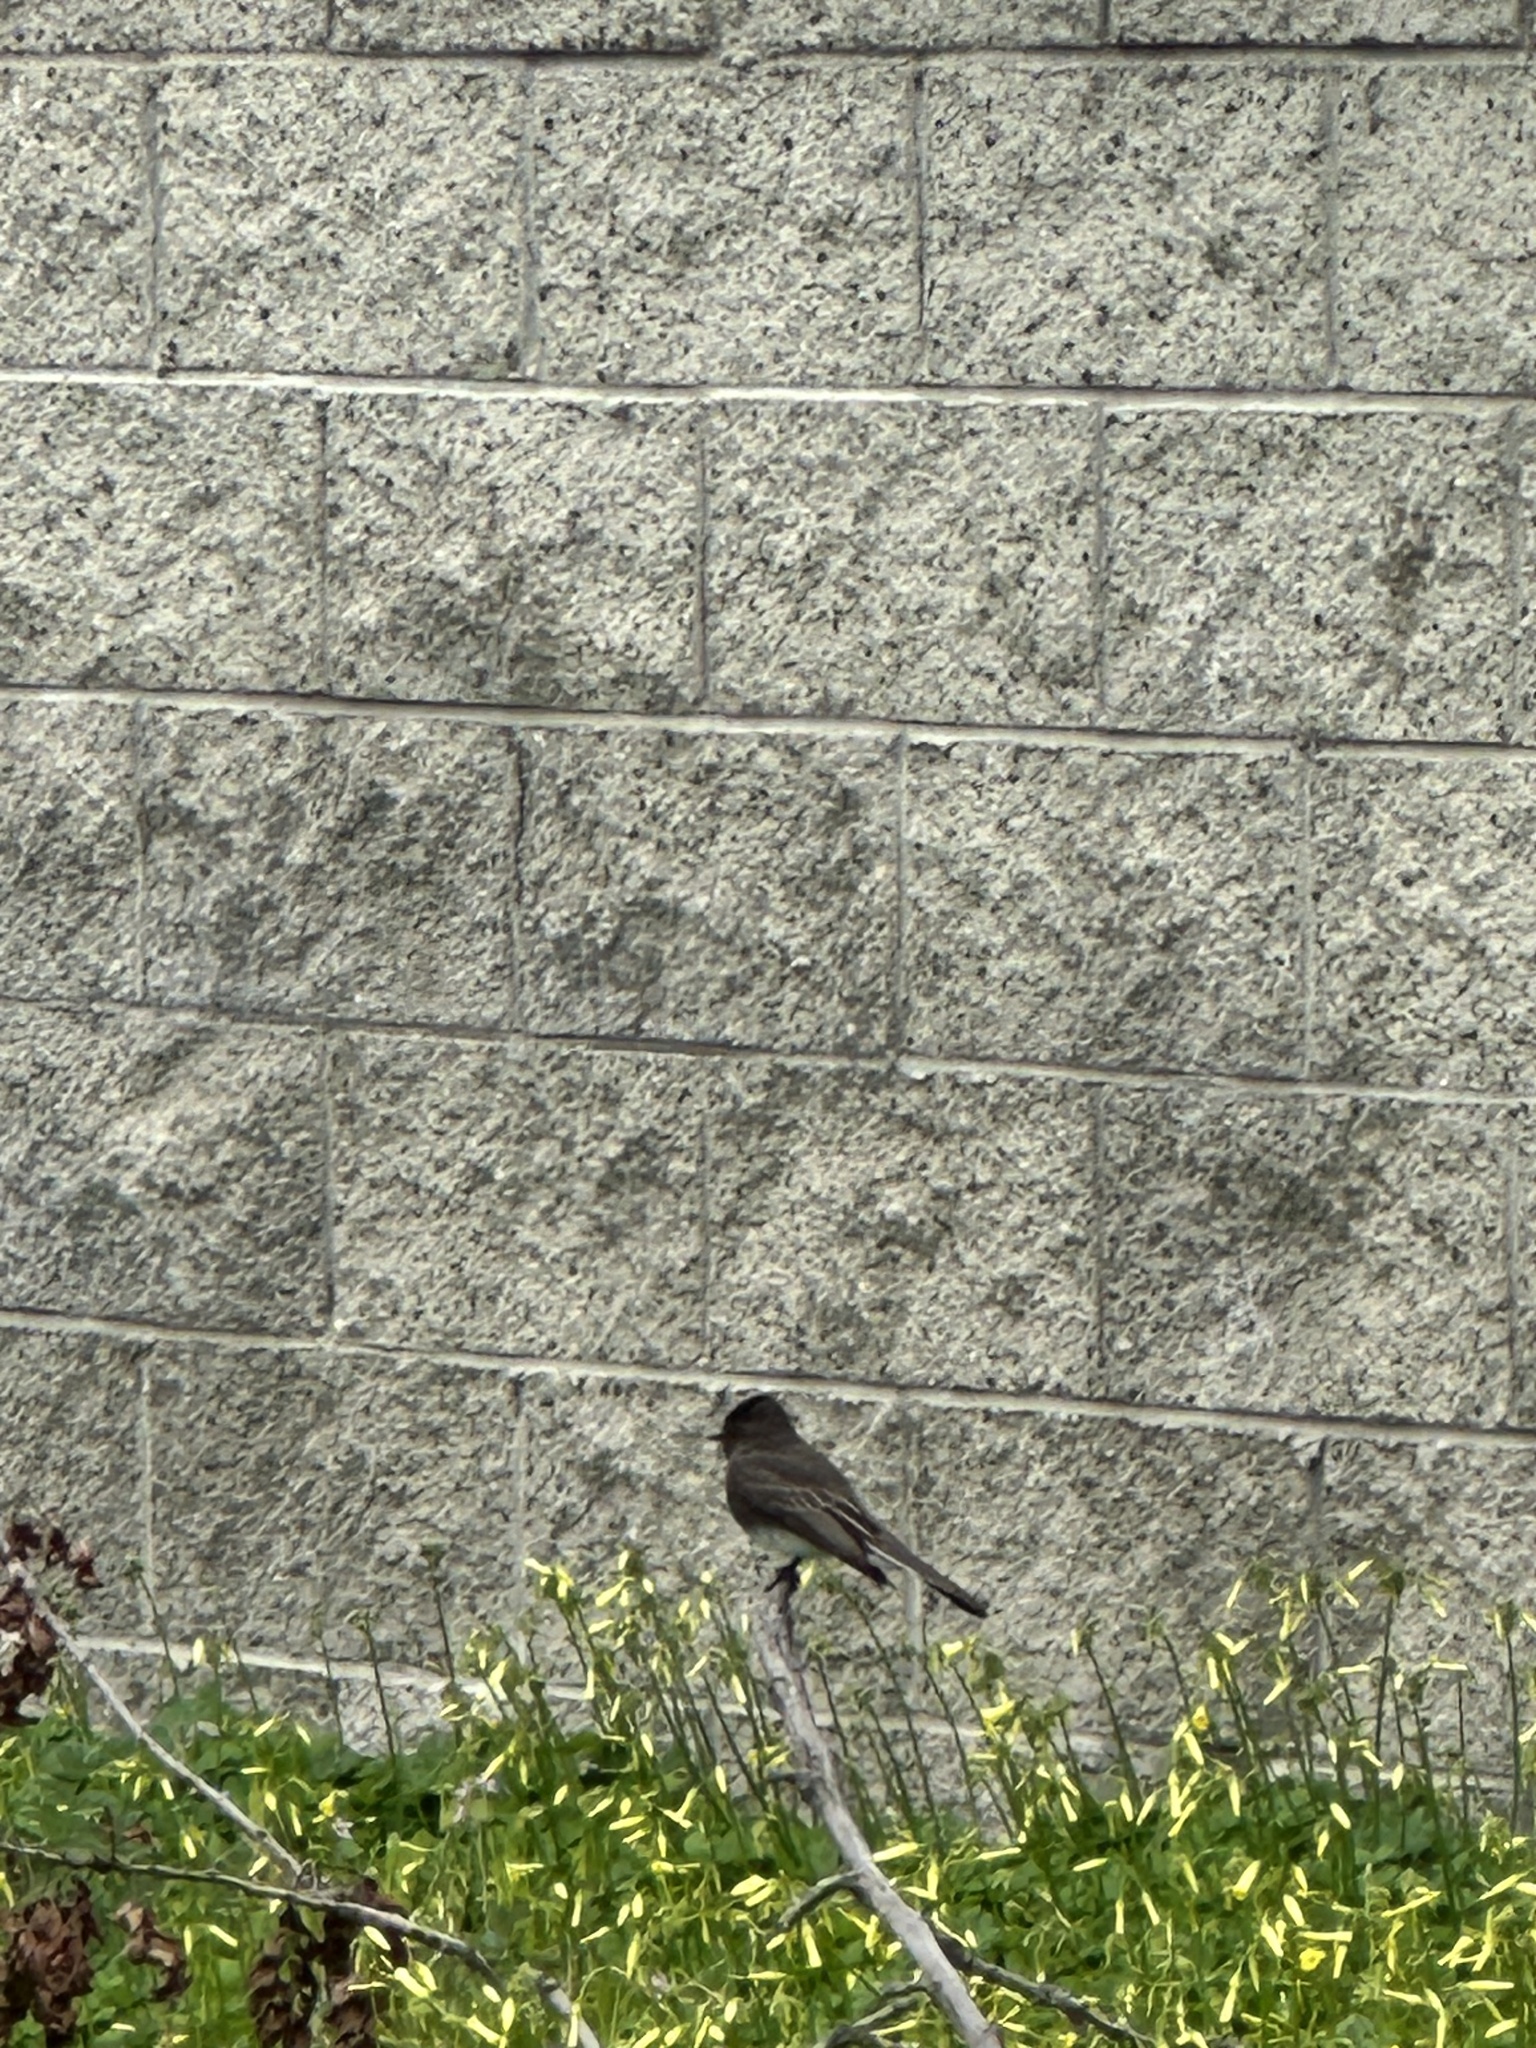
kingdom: Animalia
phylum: Chordata
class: Aves
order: Passeriformes
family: Tyrannidae
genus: Sayornis
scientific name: Sayornis nigricans
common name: Black phoebe
